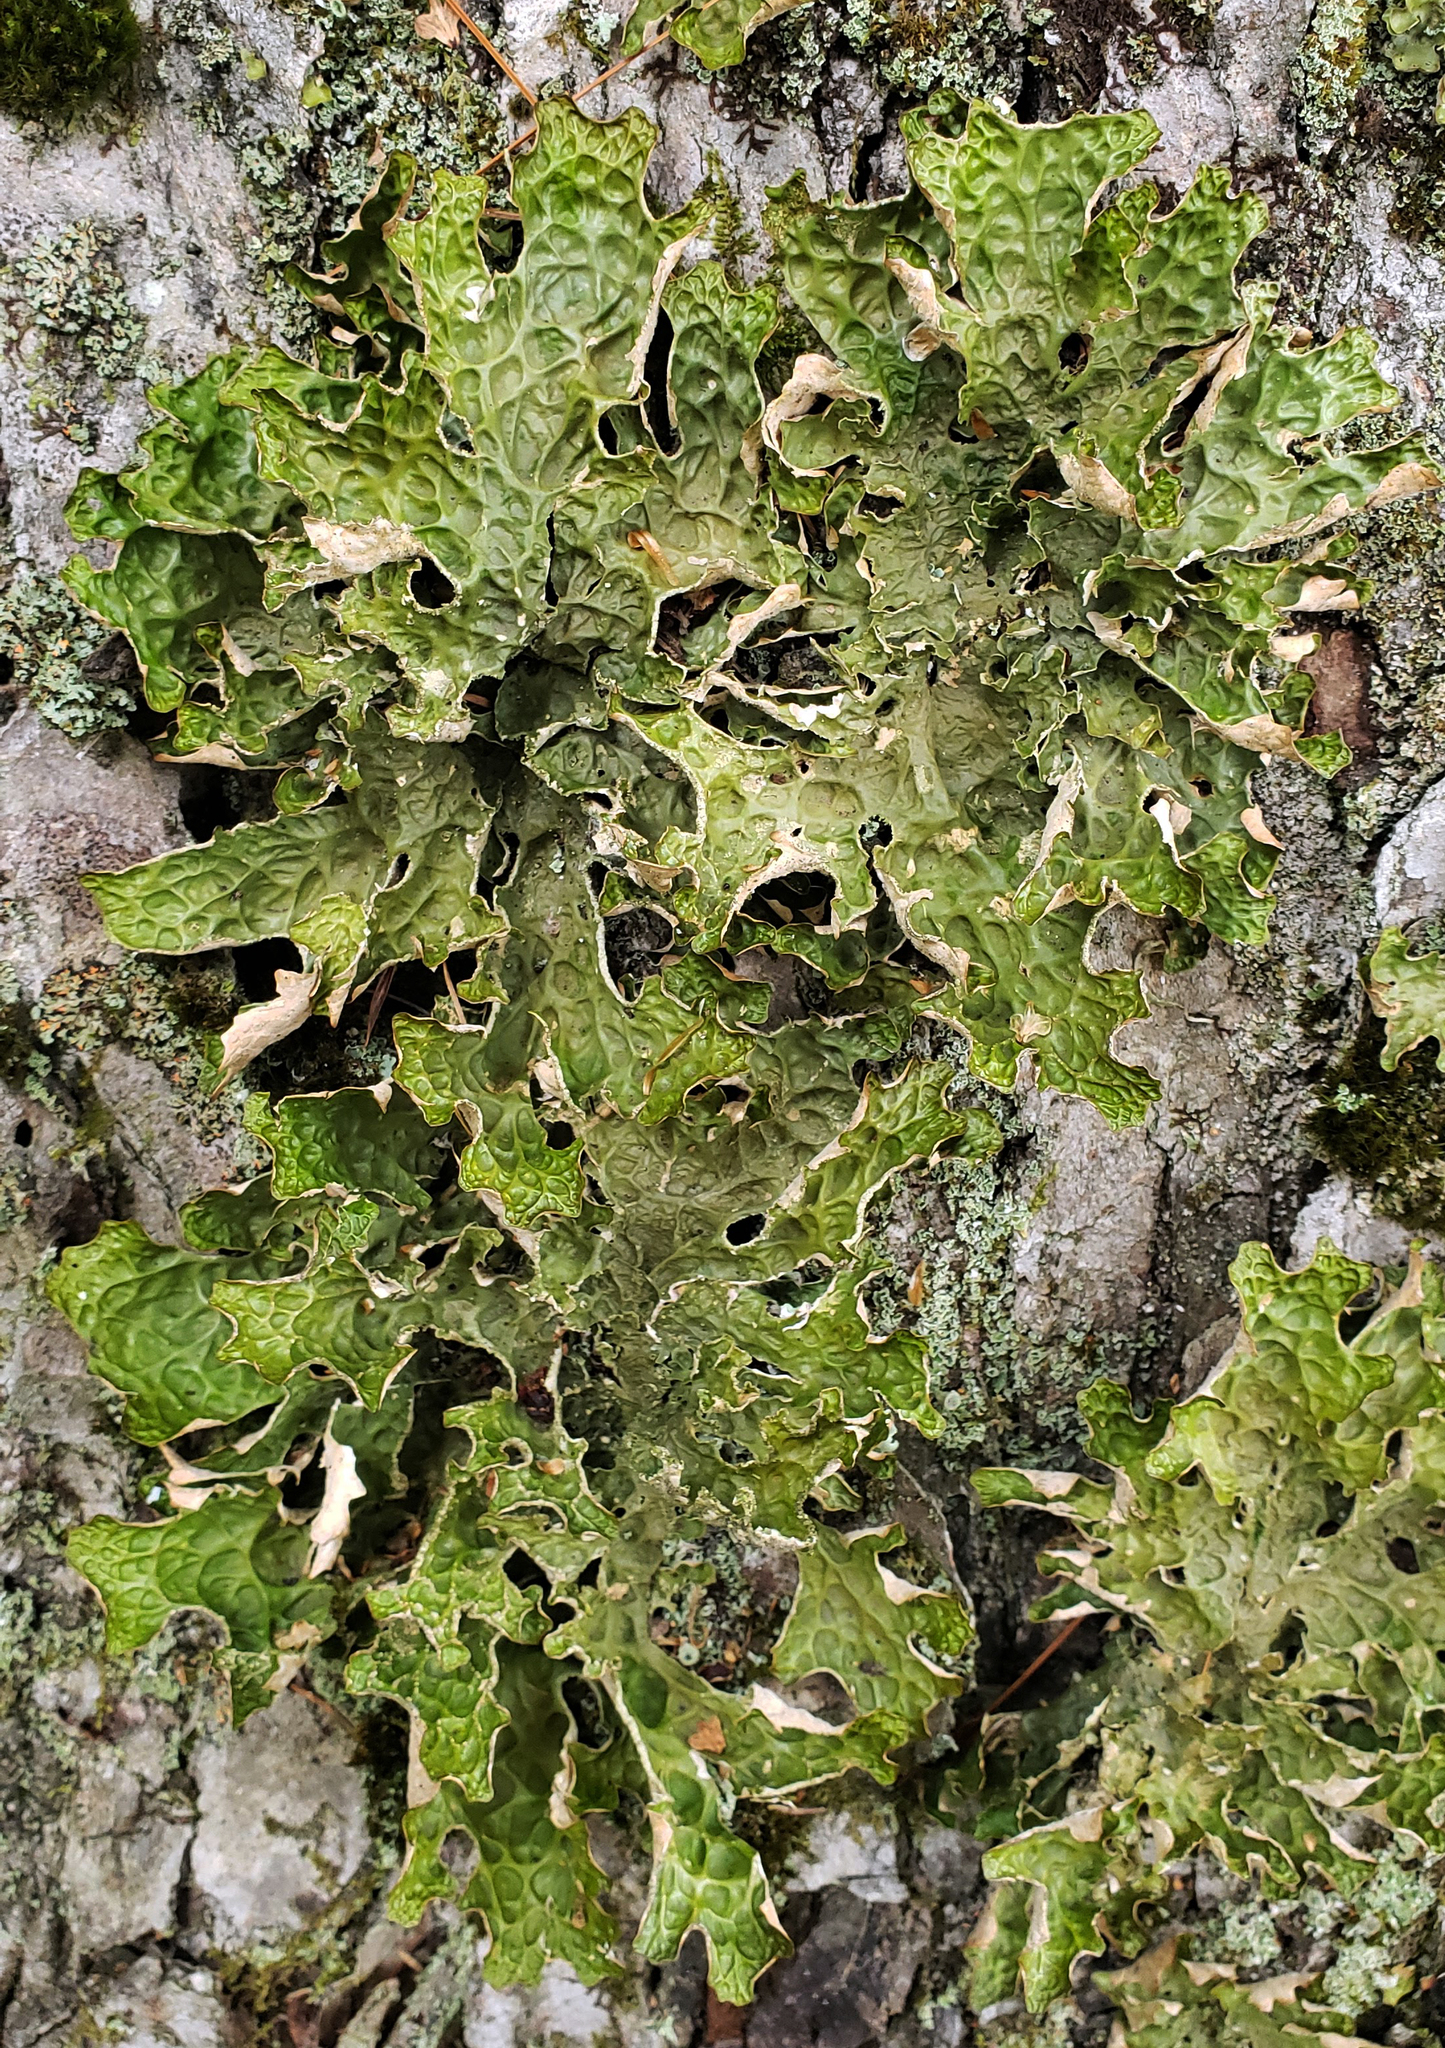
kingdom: Fungi
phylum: Ascomycota
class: Lecanoromycetes
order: Peltigerales
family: Lobariaceae
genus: Lobaria
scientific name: Lobaria pulmonaria
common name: Lungwort
